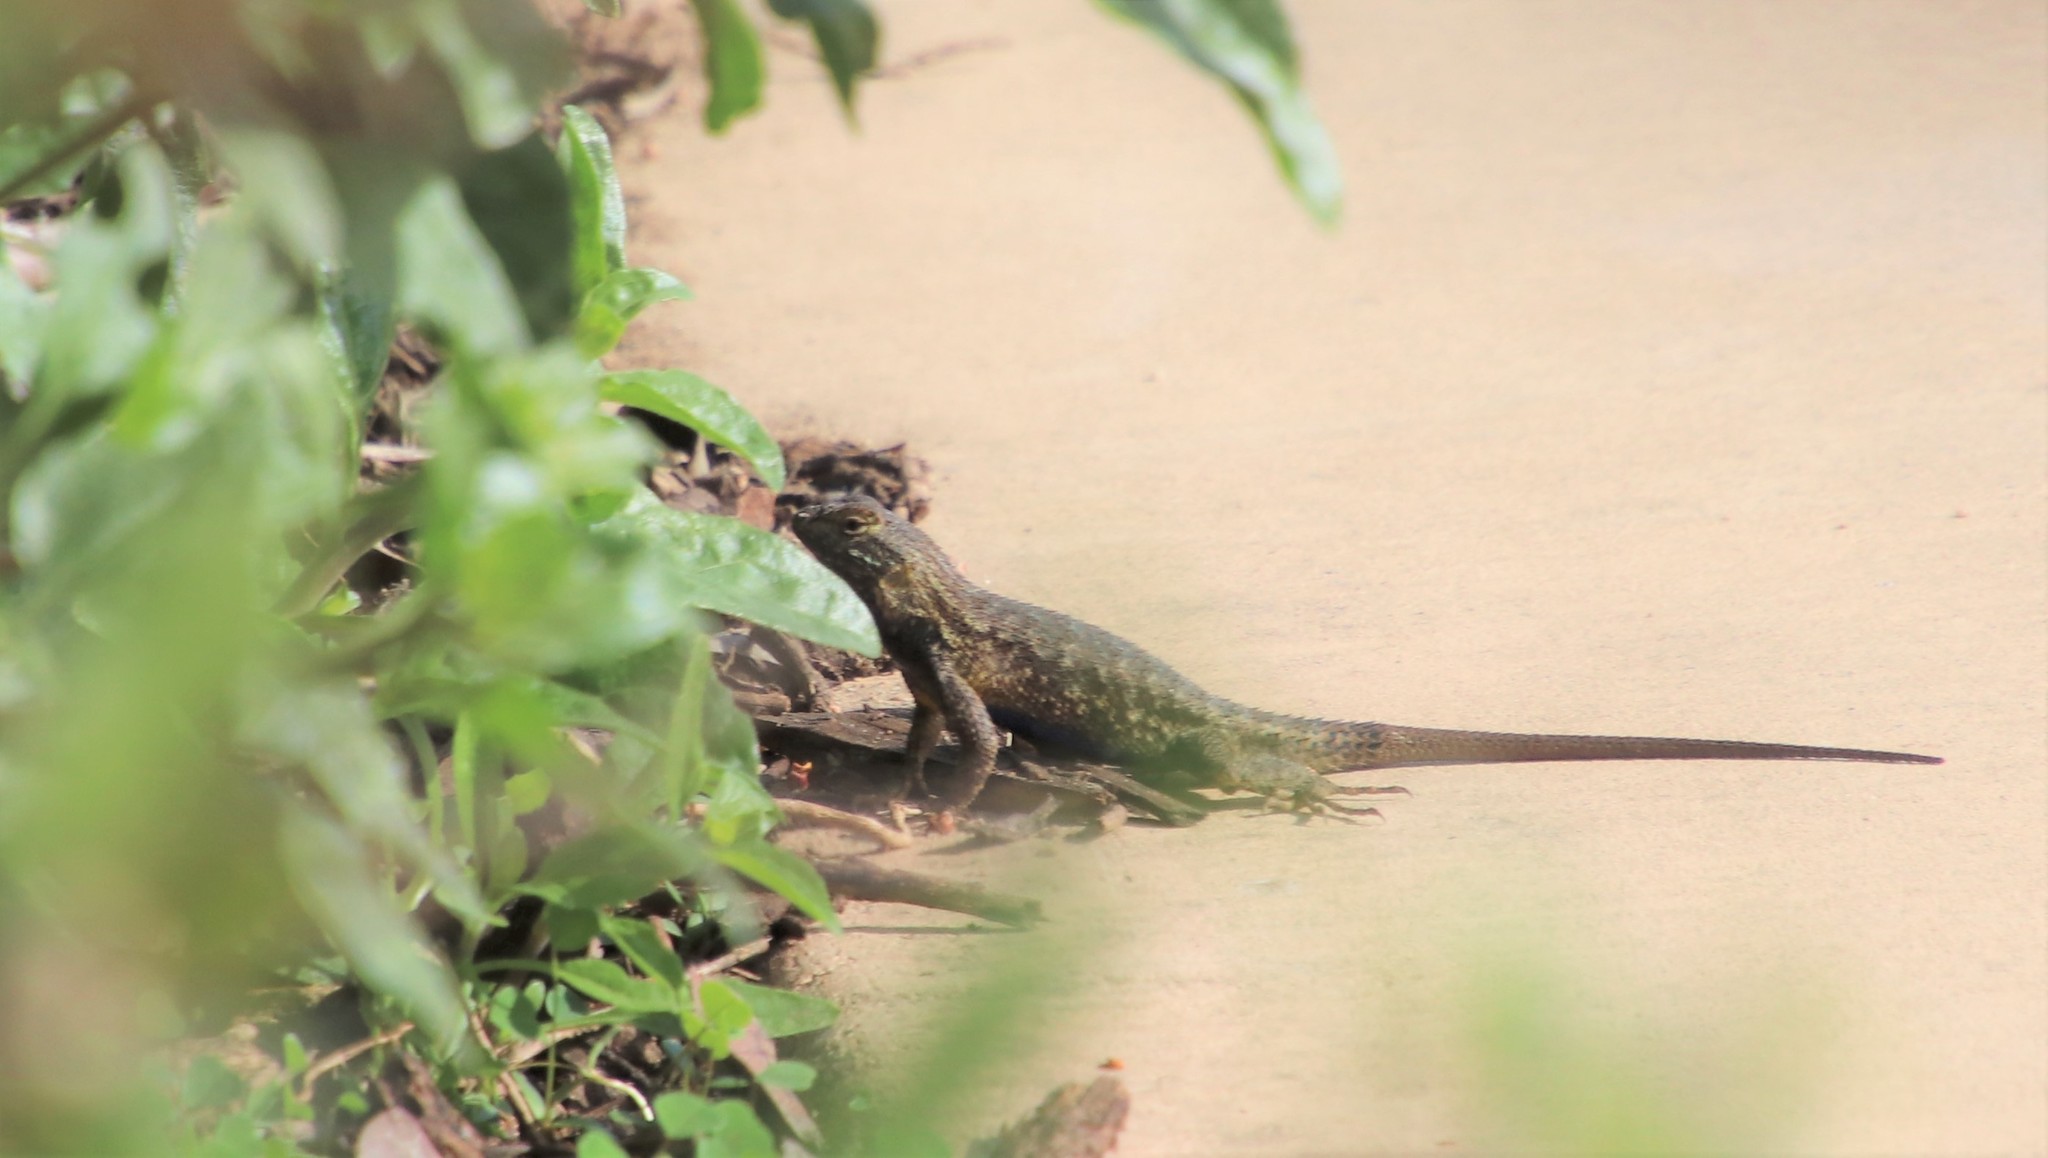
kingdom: Animalia
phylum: Chordata
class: Squamata
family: Phrynosomatidae
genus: Sceloporus
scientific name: Sceloporus occidentalis
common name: Western fence lizard
